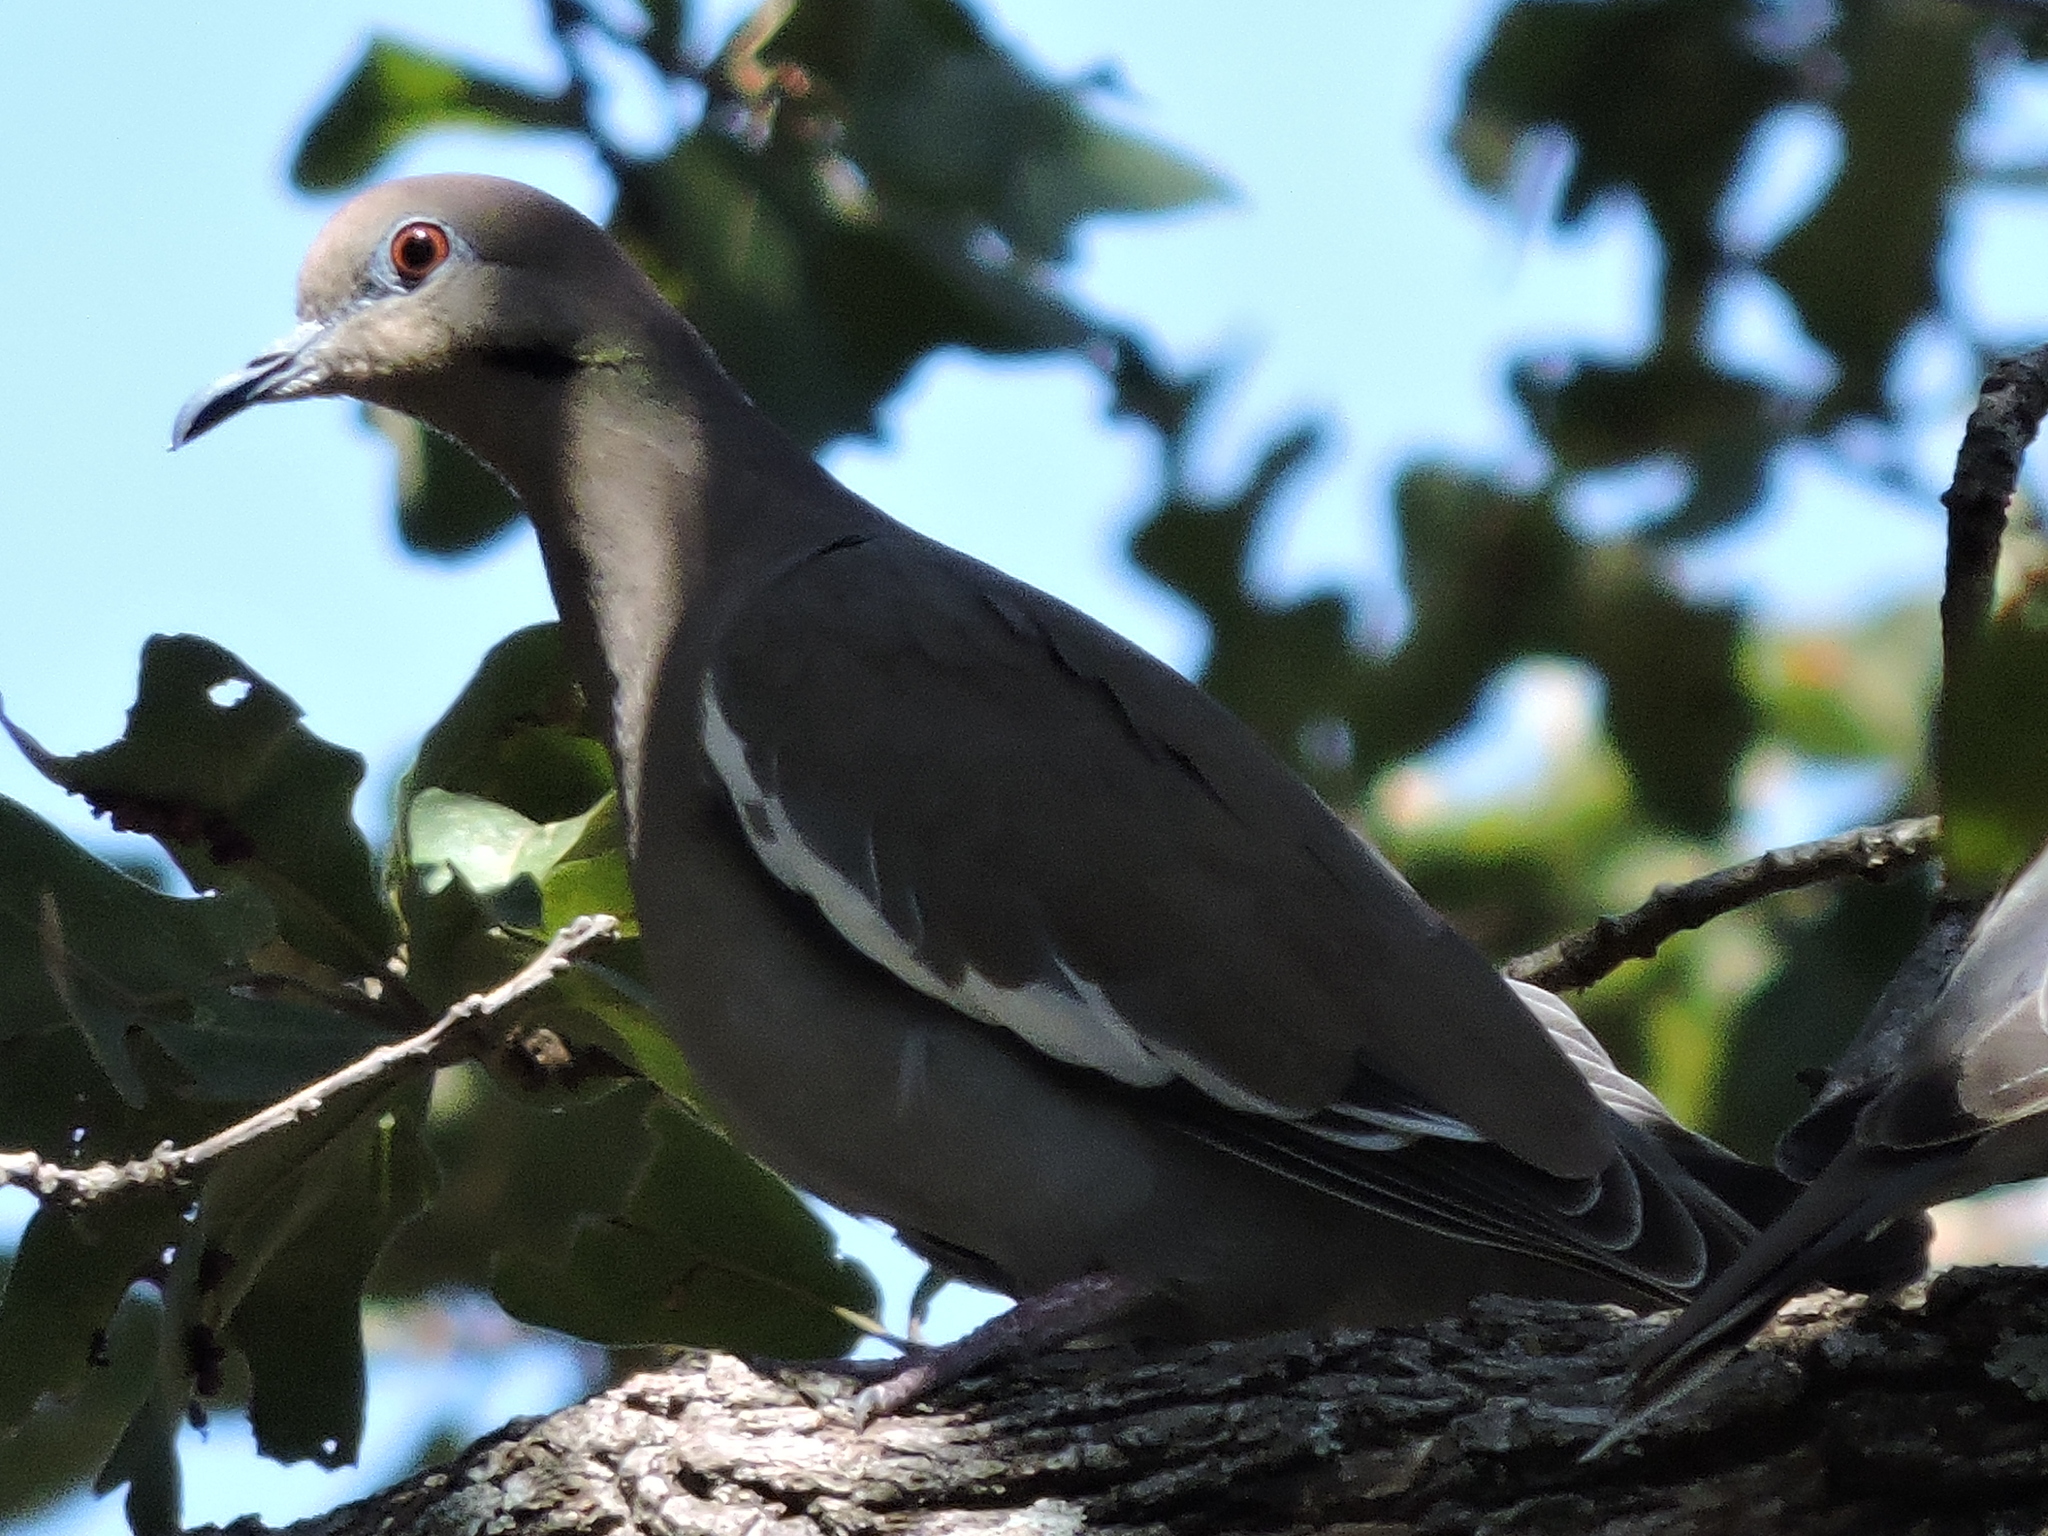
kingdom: Animalia
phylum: Chordata
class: Aves
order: Columbiformes
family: Columbidae
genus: Zenaida
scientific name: Zenaida asiatica
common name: White-winged dove
